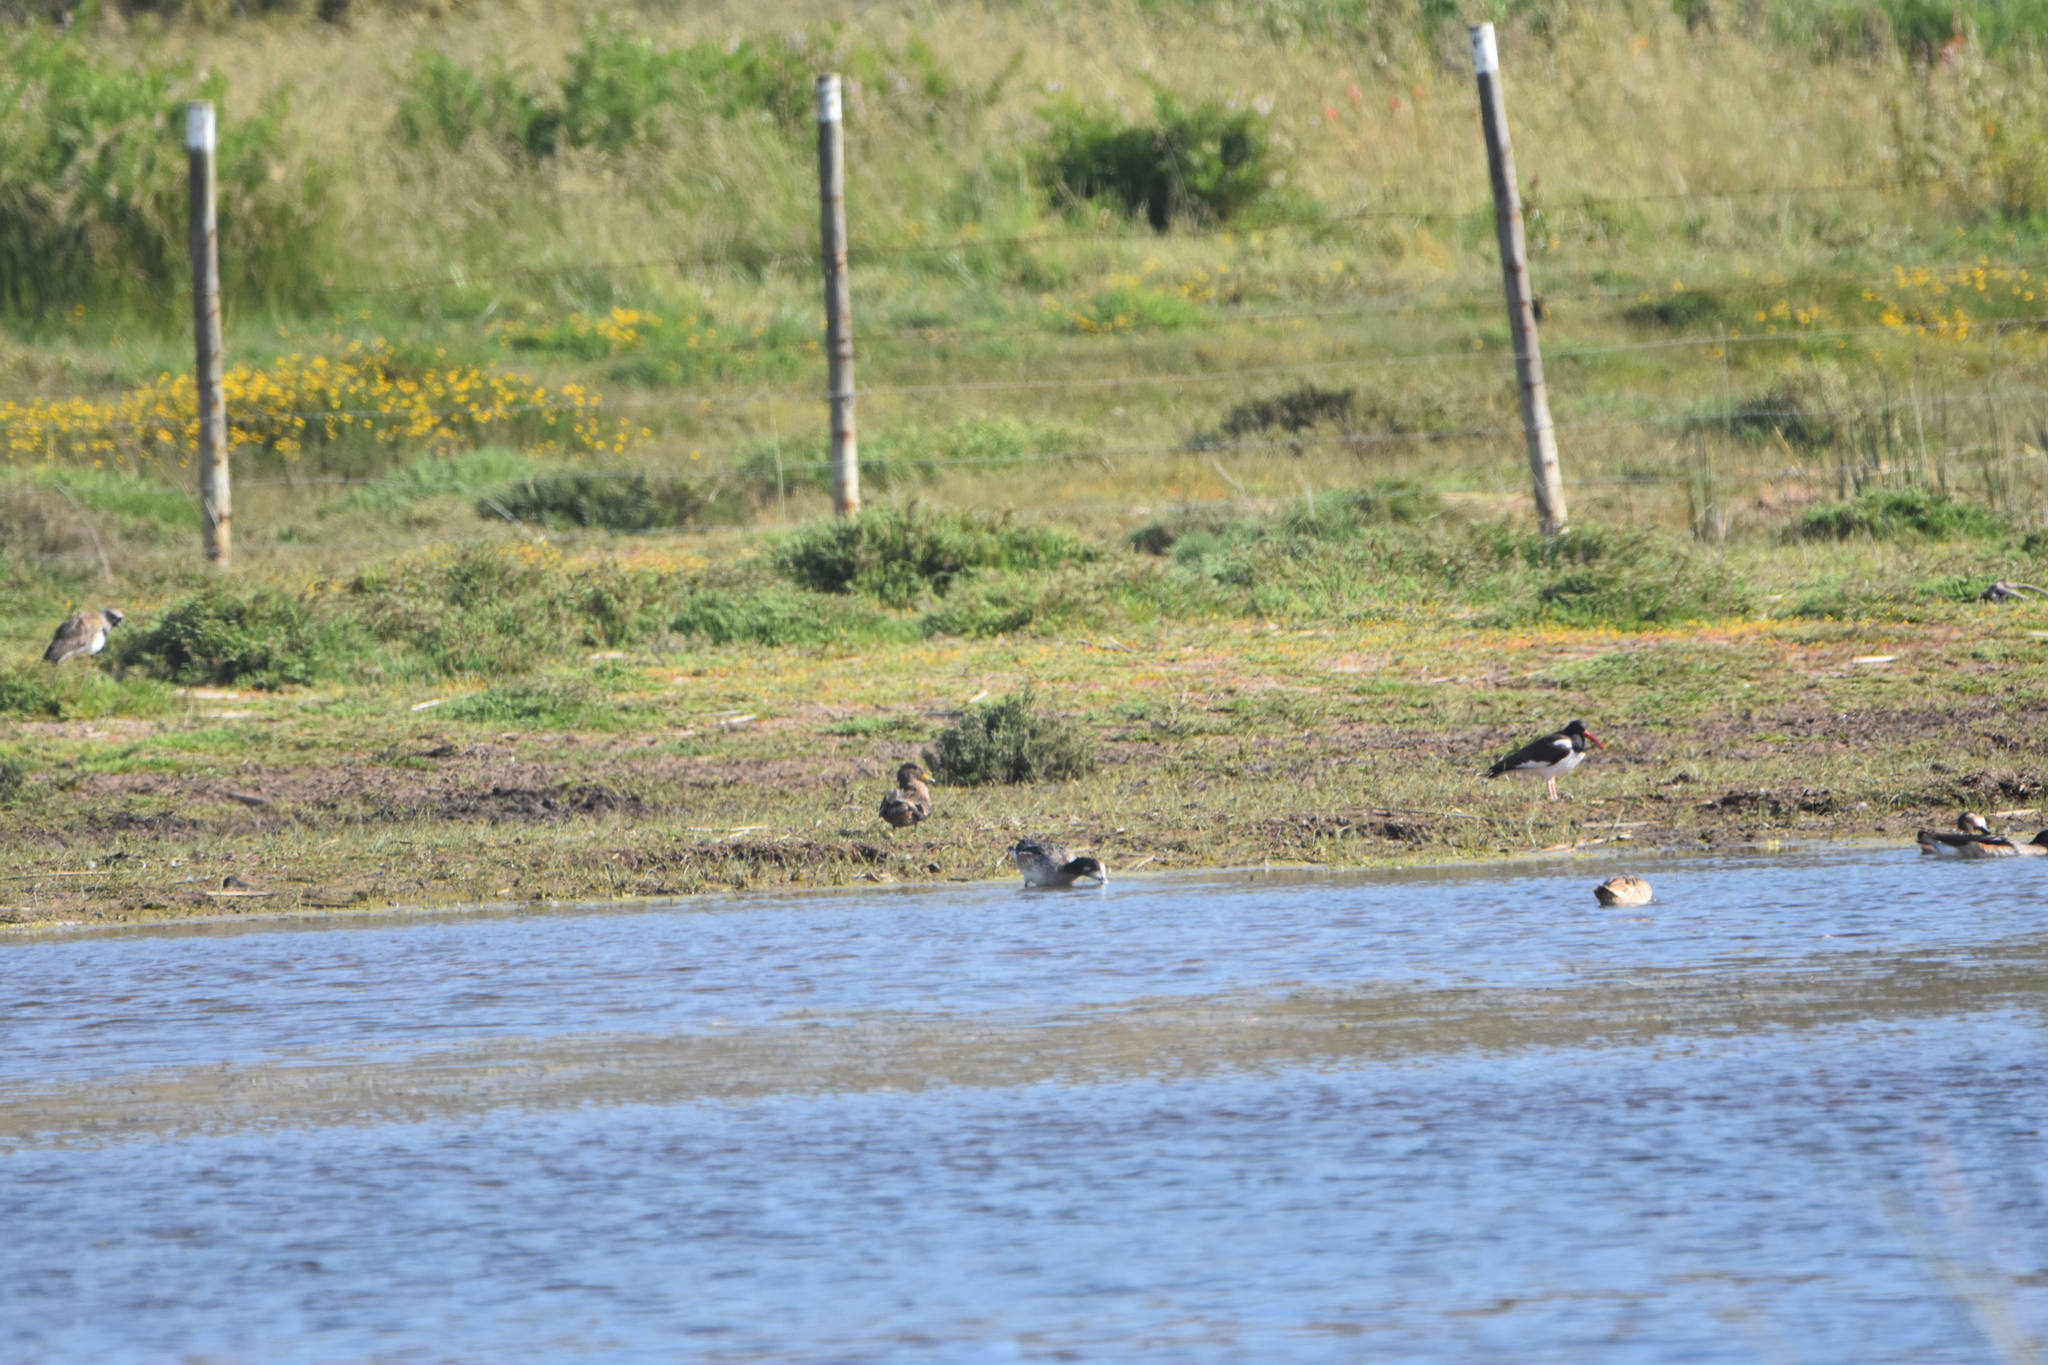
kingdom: Animalia
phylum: Chordata
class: Aves
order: Anseriformes
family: Anatidae
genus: Mareca
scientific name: Mareca sibilatrix
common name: Chiloe wigeon
